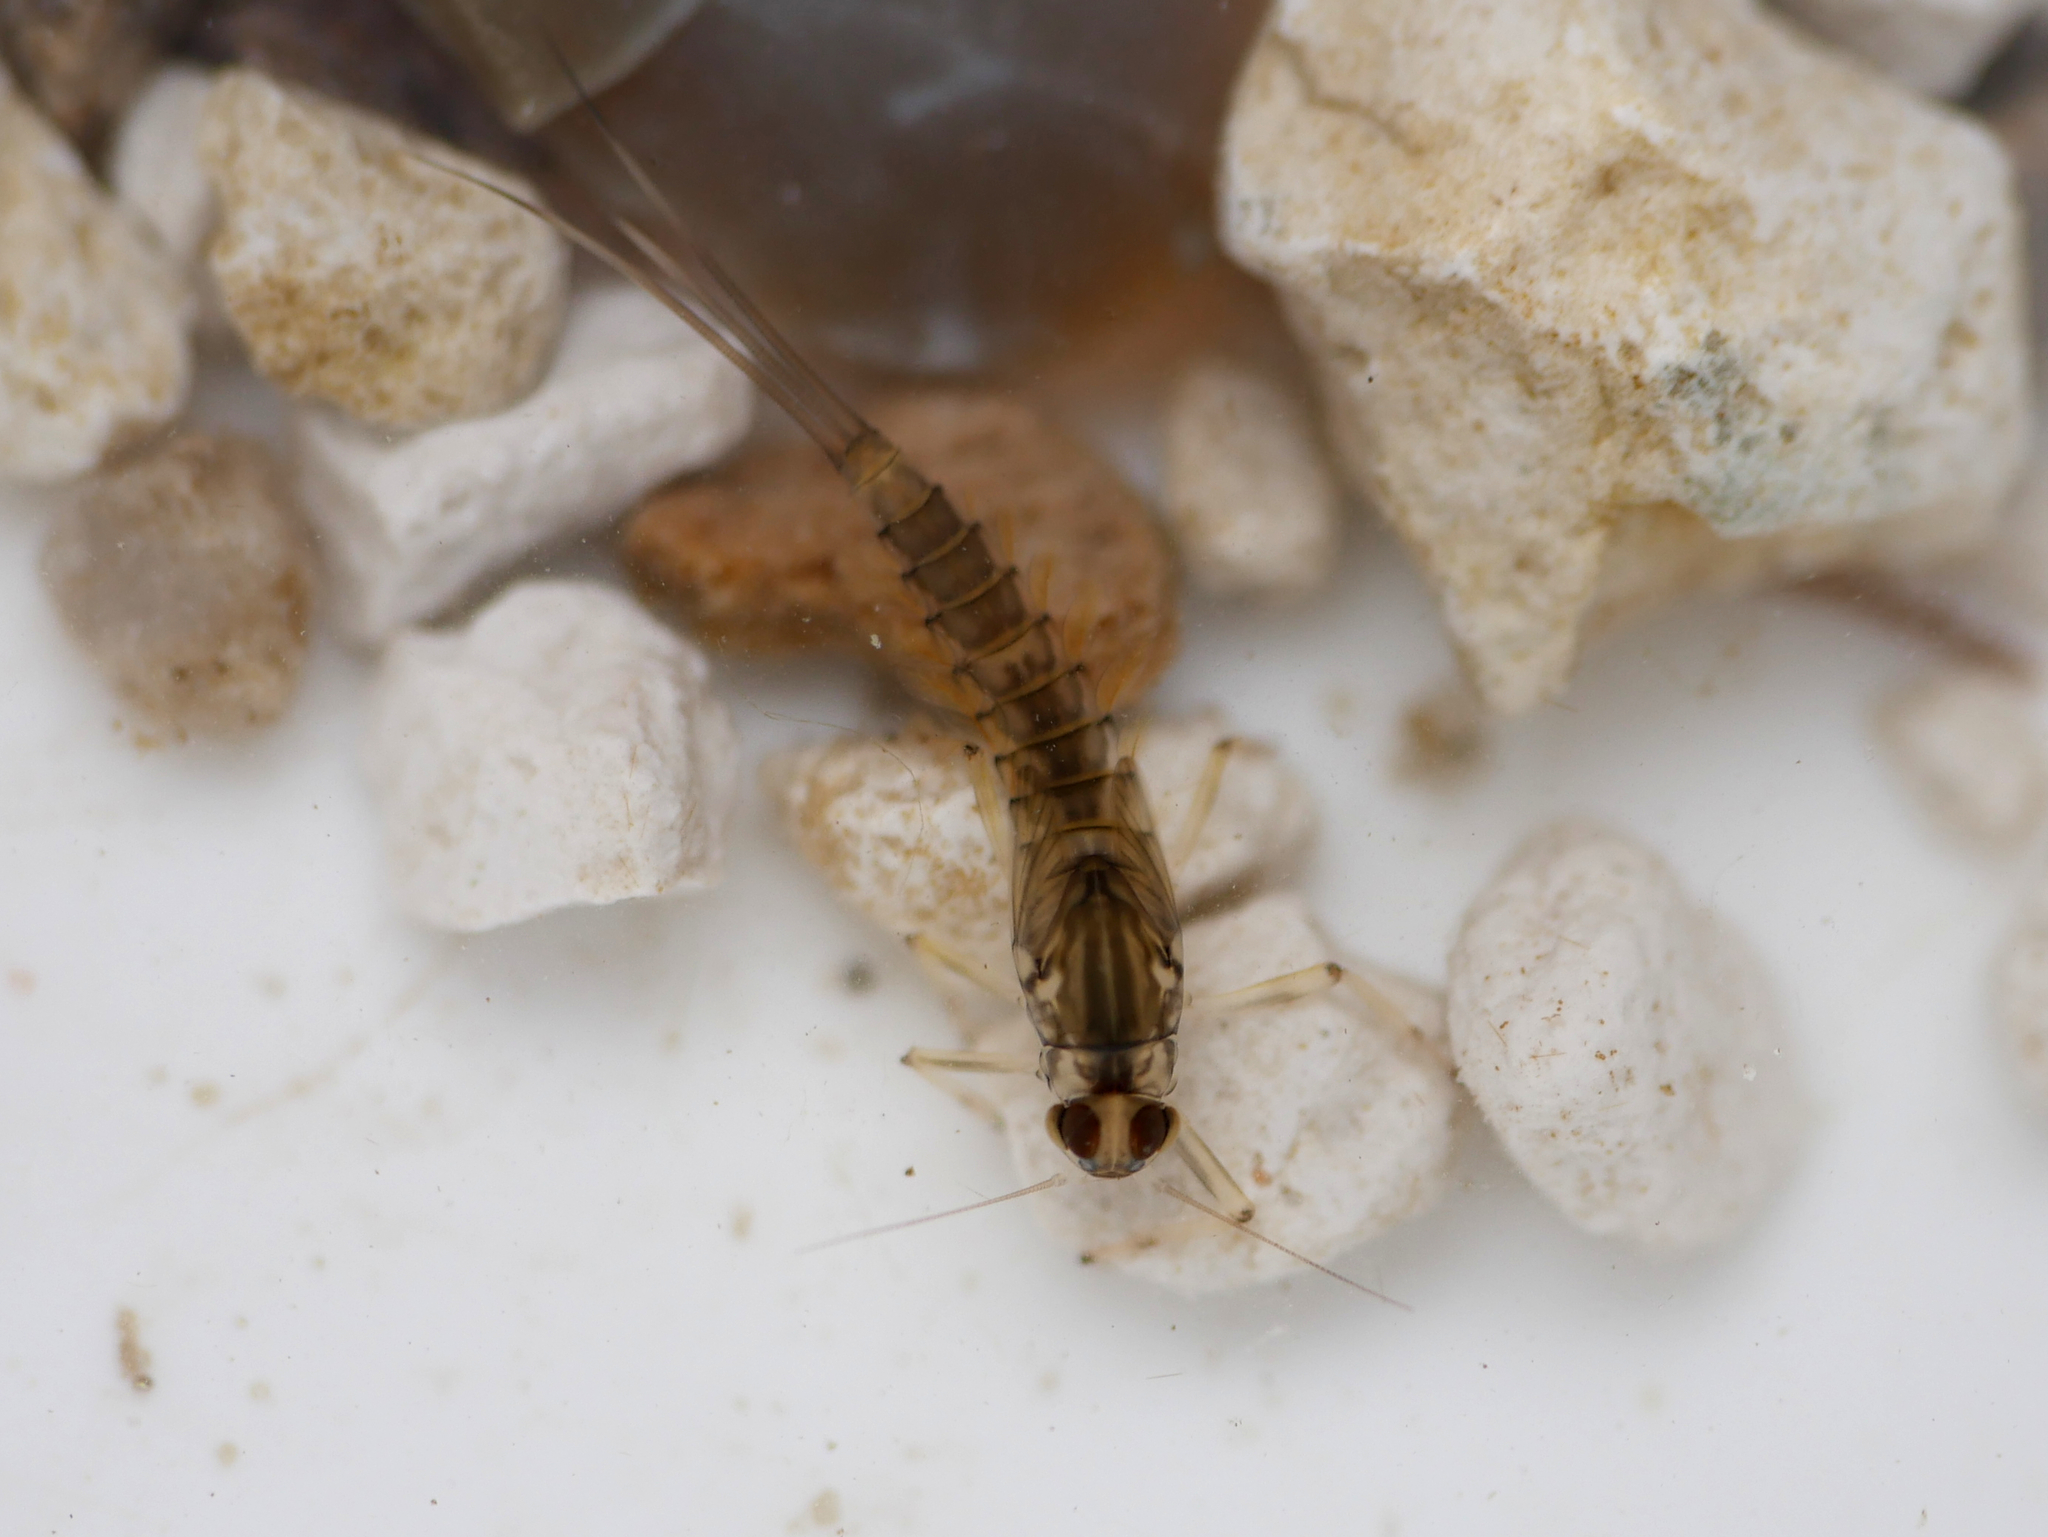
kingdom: Animalia
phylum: Arthropoda
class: Insecta
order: Ephemeroptera
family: Baetidae
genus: Baetis
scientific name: Baetis rhodani
